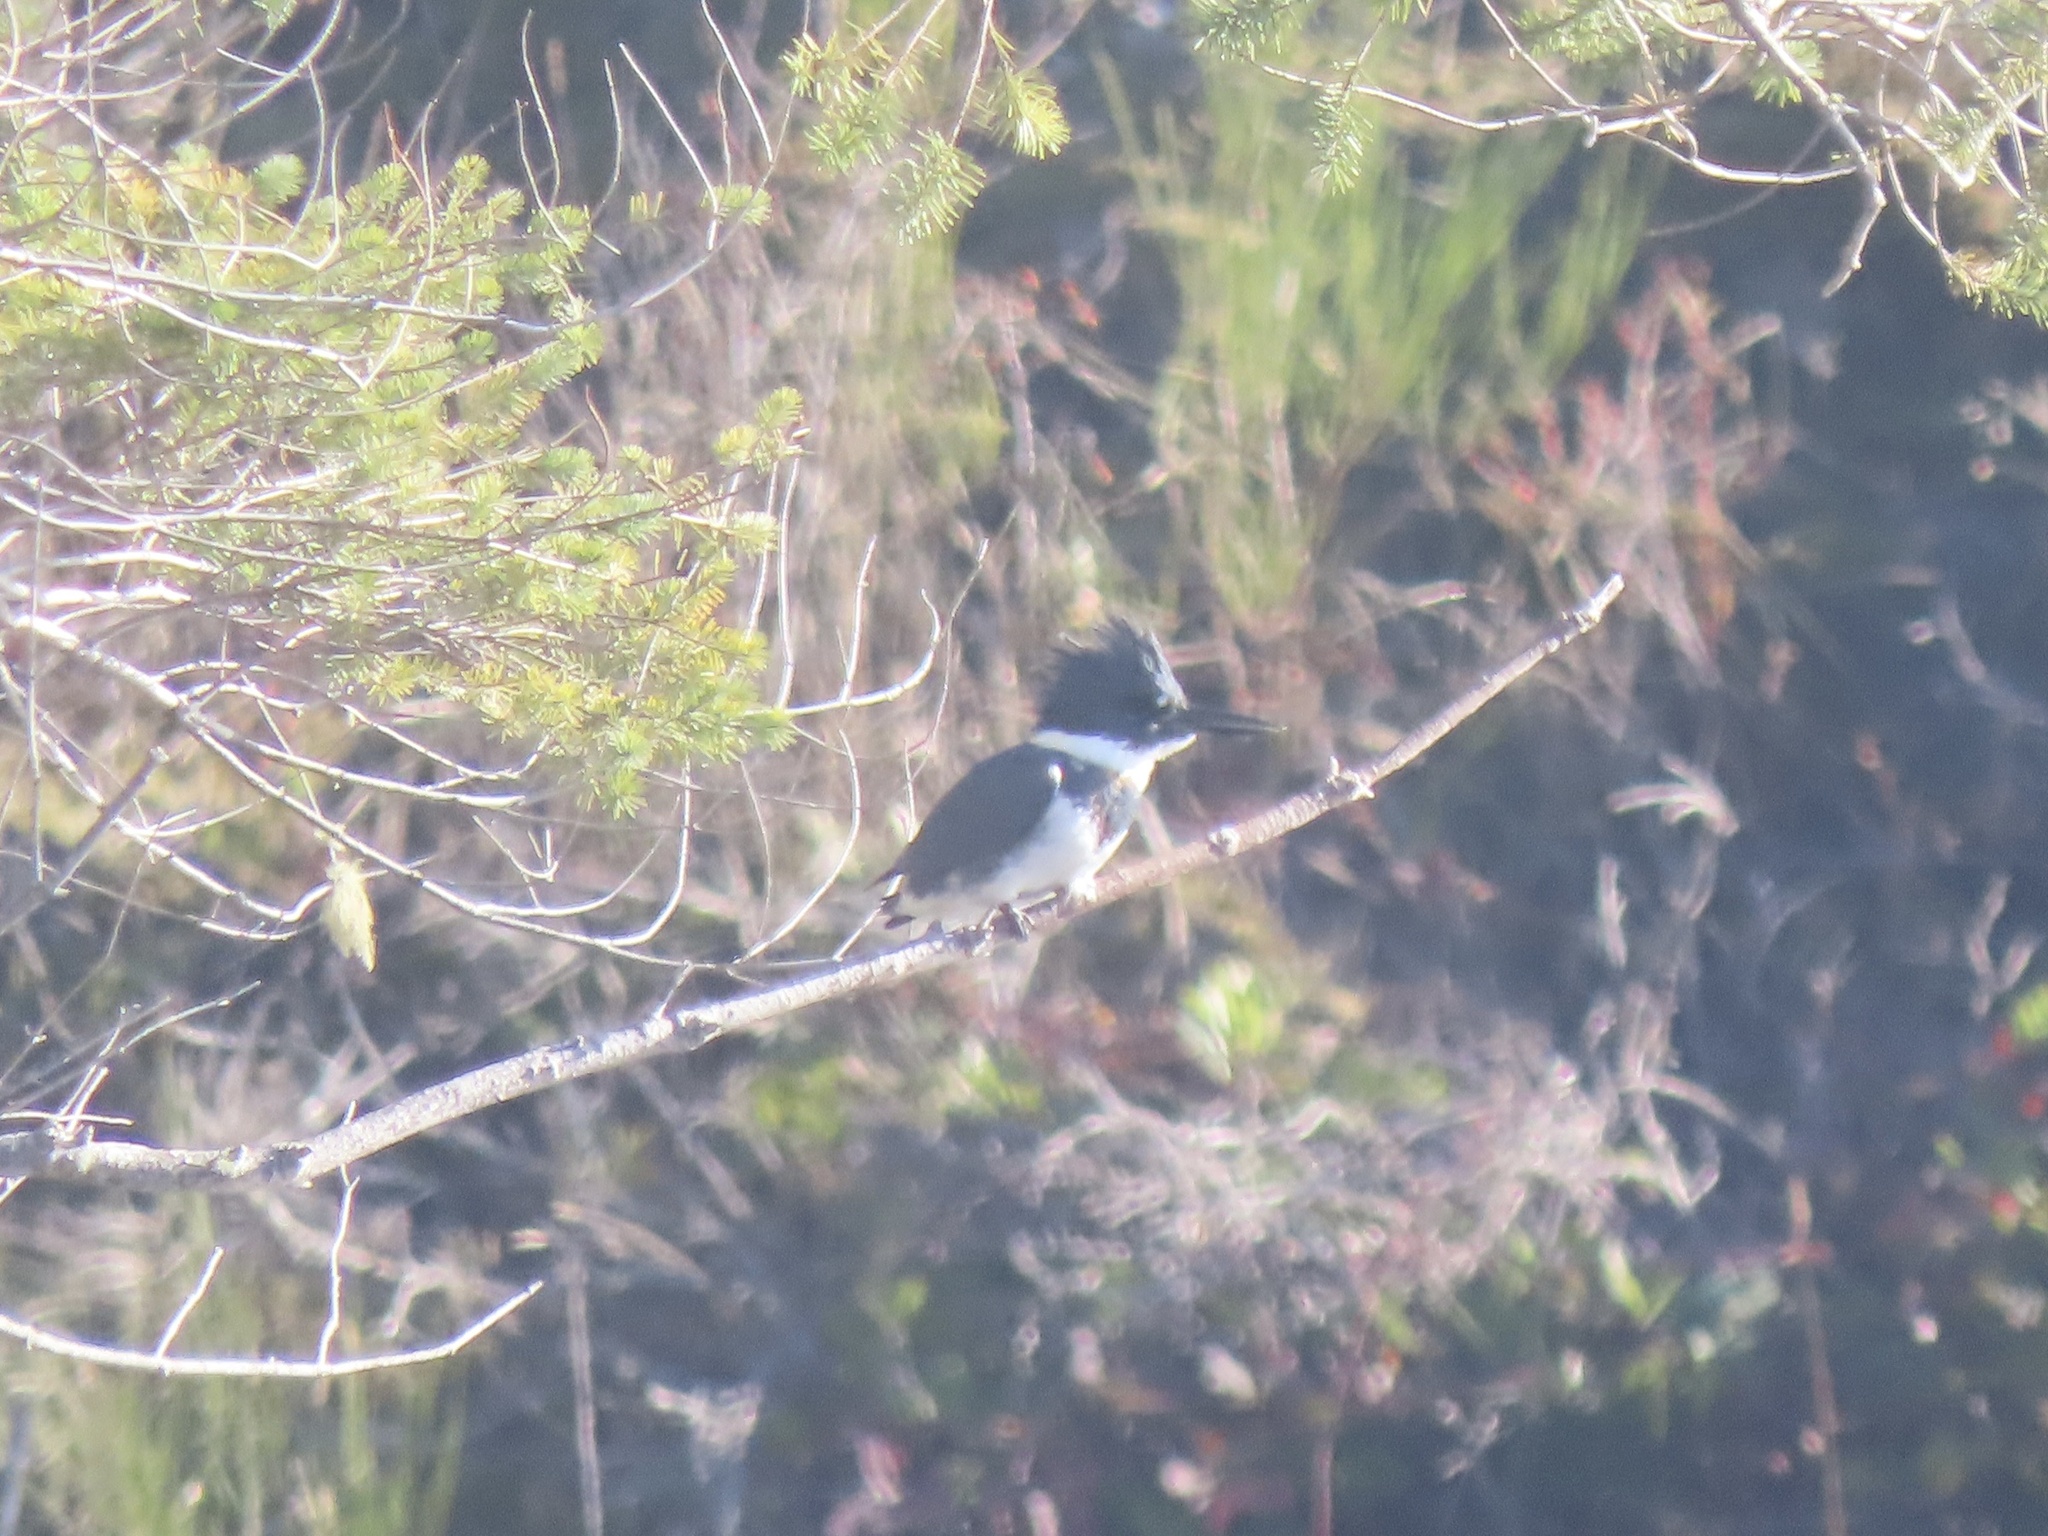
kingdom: Animalia
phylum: Chordata
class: Aves
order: Coraciiformes
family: Alcedinidae
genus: Megaceryle
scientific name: Megaceryle alcyon
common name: Belted kingfisher
